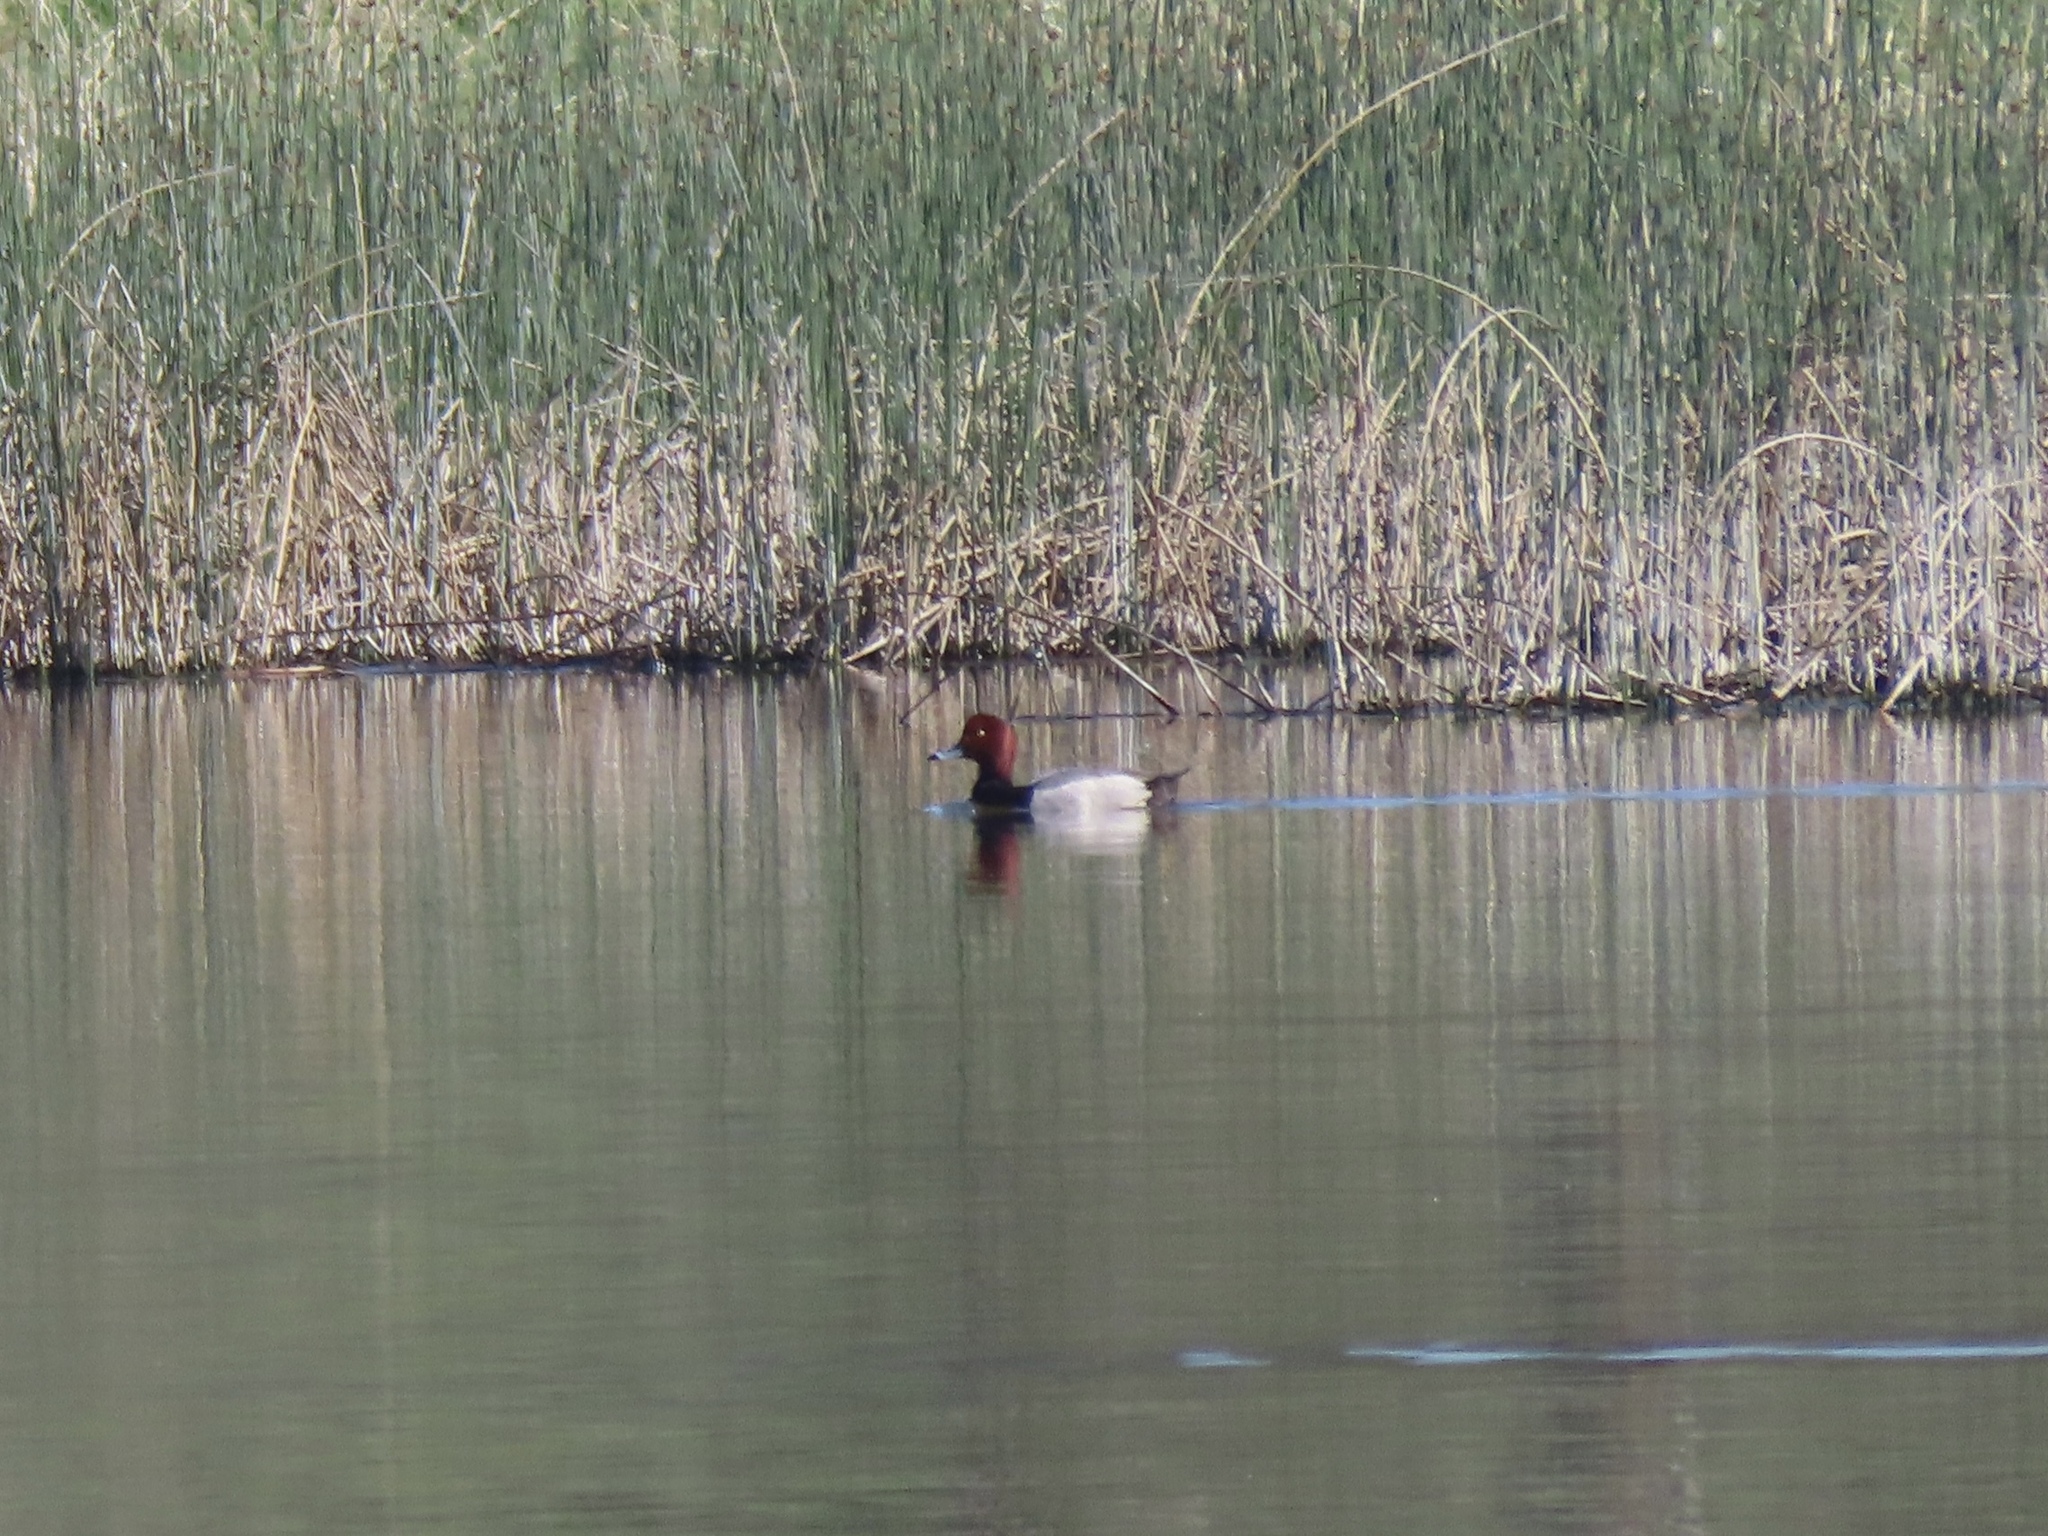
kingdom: Animalia
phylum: Chordata
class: Aves
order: Anseriformes
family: Anatidae
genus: Aythya
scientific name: Aythya americana
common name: Redhead
